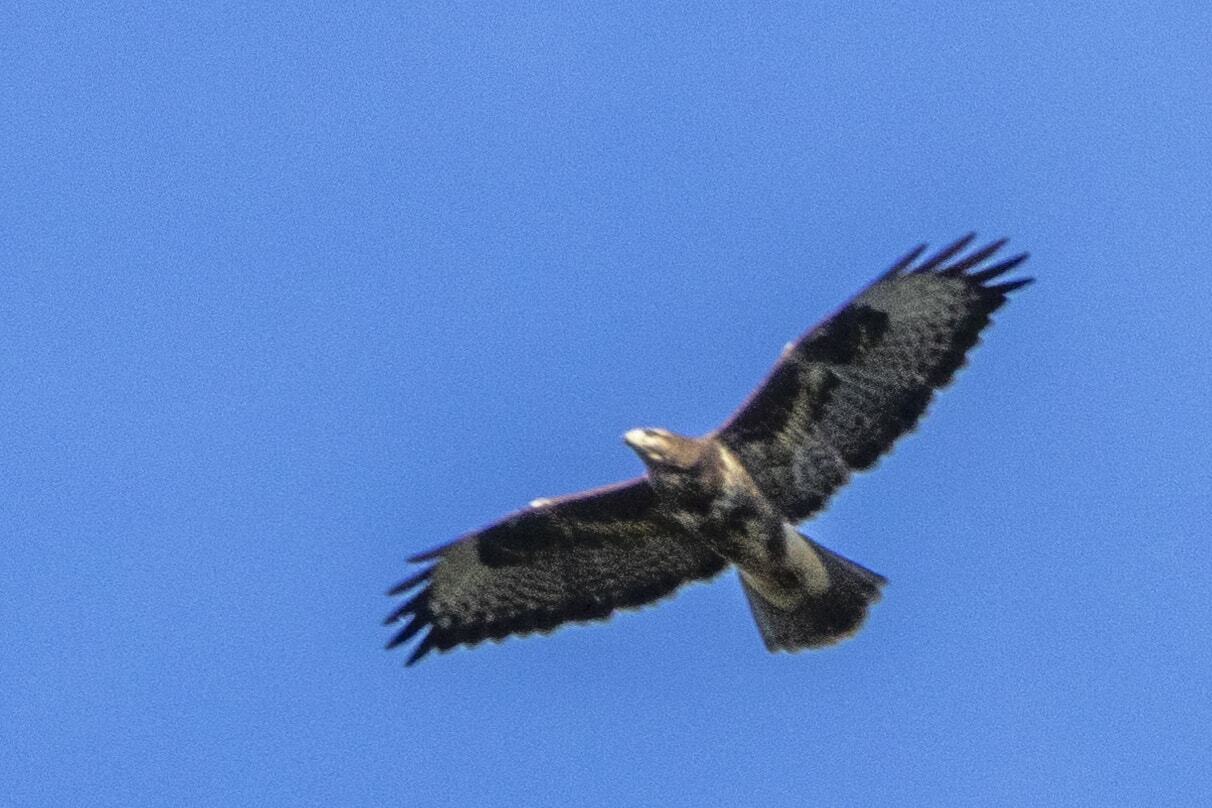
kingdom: Animalia
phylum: Chordata
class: Aves
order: Accipitriformes
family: Accipitridae
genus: Buteo
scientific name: Buteo buteo
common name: Common buzzard
